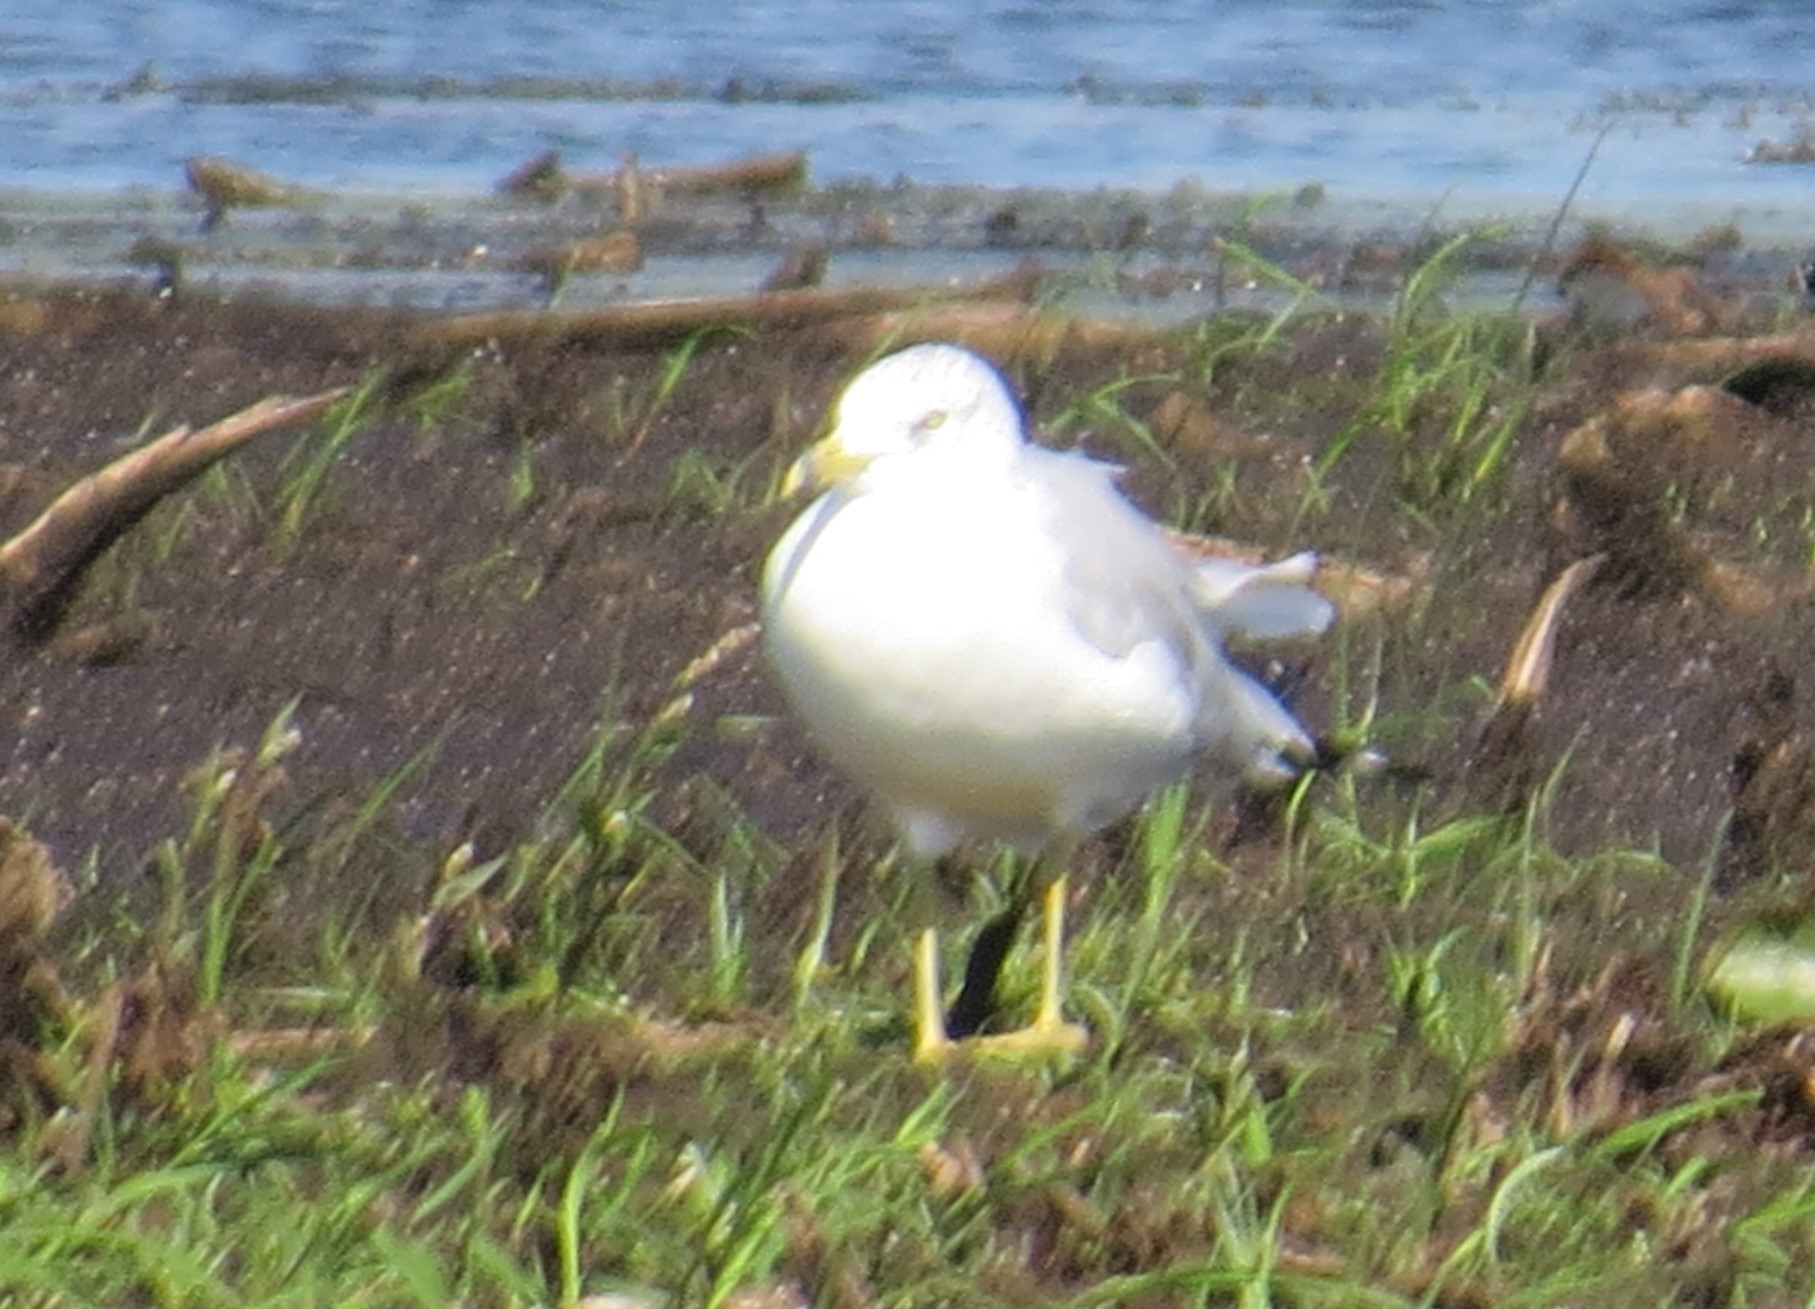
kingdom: Animalia
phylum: Chordata
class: Aves
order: Charadriiformes
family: Laridae
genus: Larus
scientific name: Larus delawarensis
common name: Ring-billed gull
